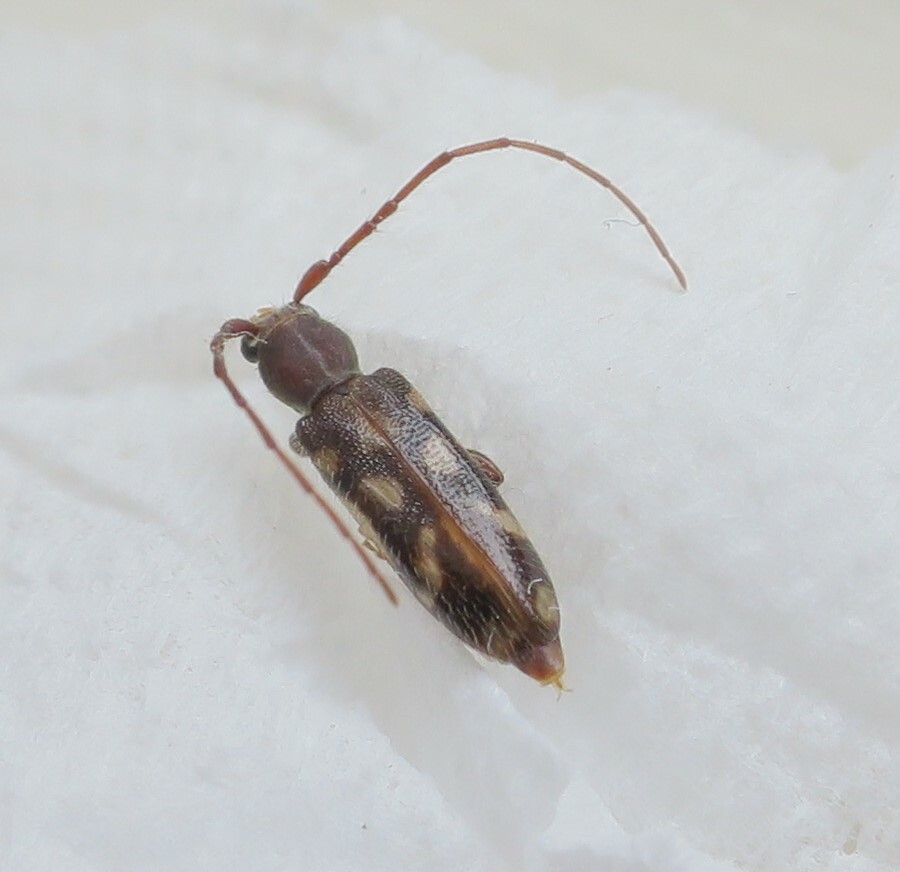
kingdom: Animalia
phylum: Arthropoda
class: Insecta
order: Coleoptera
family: Cerambycidae
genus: Bethelium
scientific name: Bethelium signiferum
